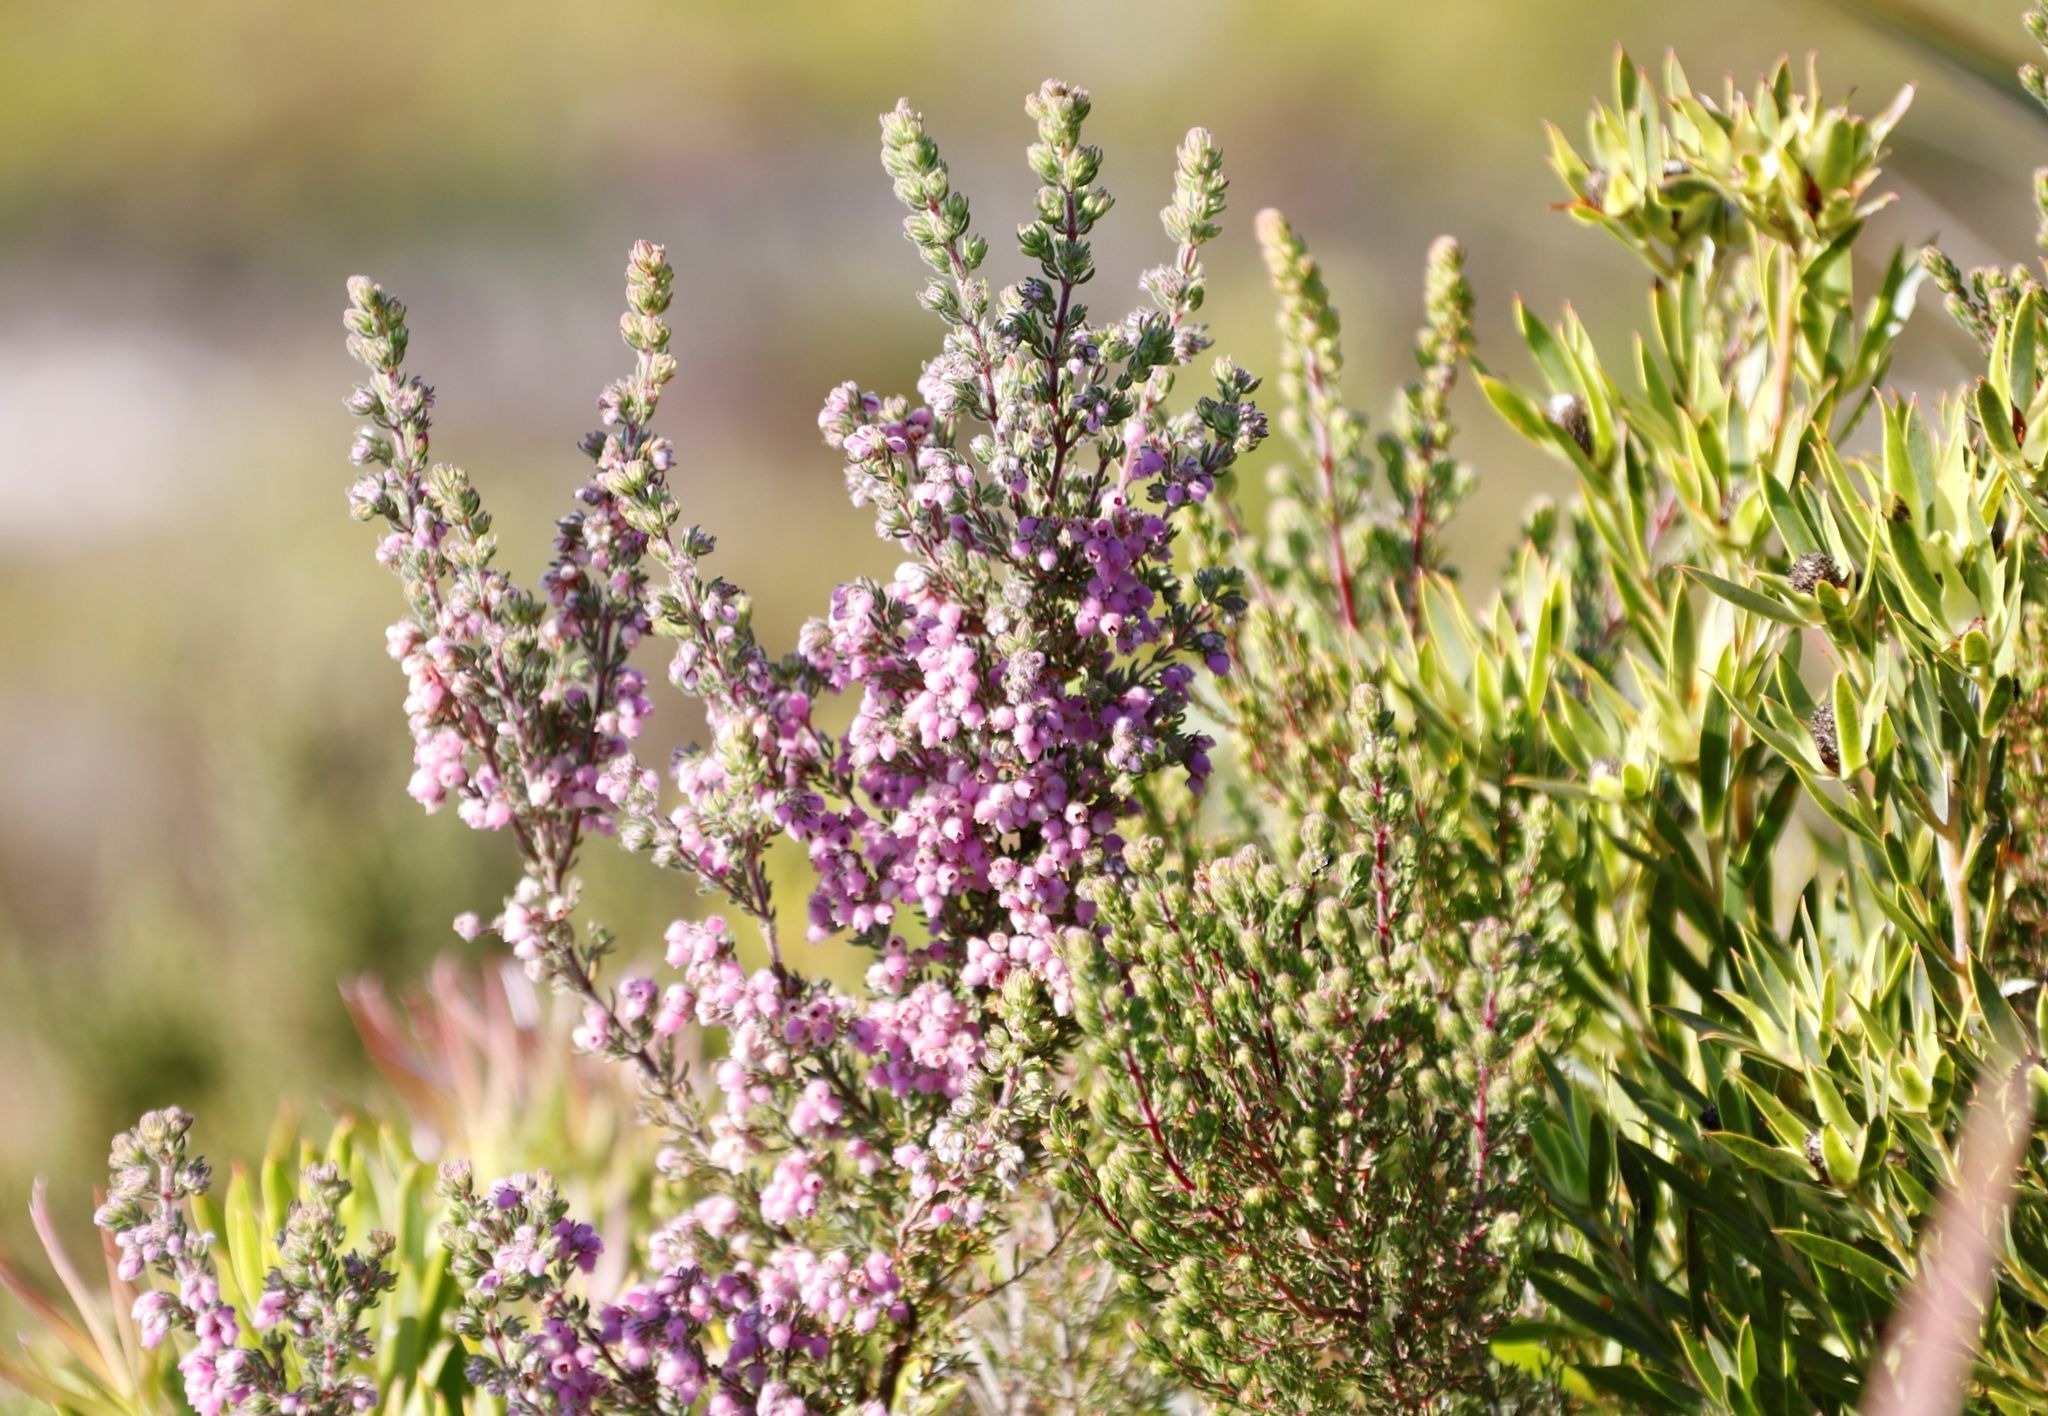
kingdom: Plantae
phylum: Tracheophyta
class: Magnoliopsida
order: Ericales
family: Ericaceae
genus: Erica
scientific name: Erica hirtiflora
